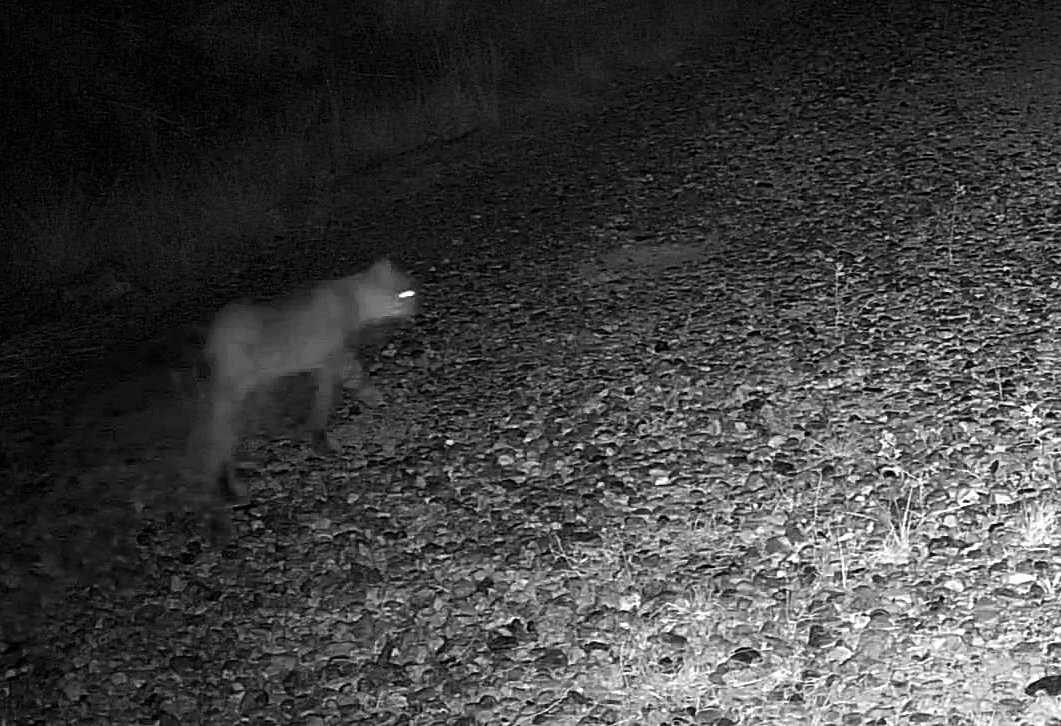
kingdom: Animalia
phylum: Chordata
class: Mammalia
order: Carnivora
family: Felidae
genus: Lynx
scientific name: Lynx rufus
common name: Bobcat
